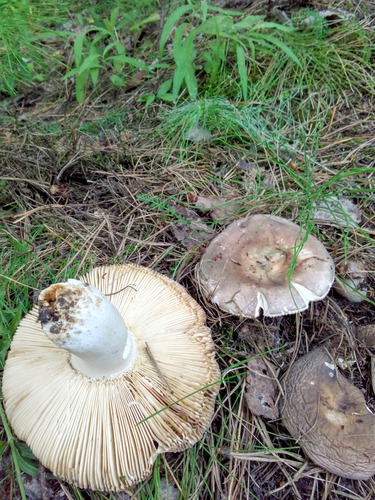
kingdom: Fungi
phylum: Basidiomycota
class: Agaricomycetes
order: Russulales
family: Russulaceae
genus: Russula
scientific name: Russula vesca
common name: Bare-toothed russula
